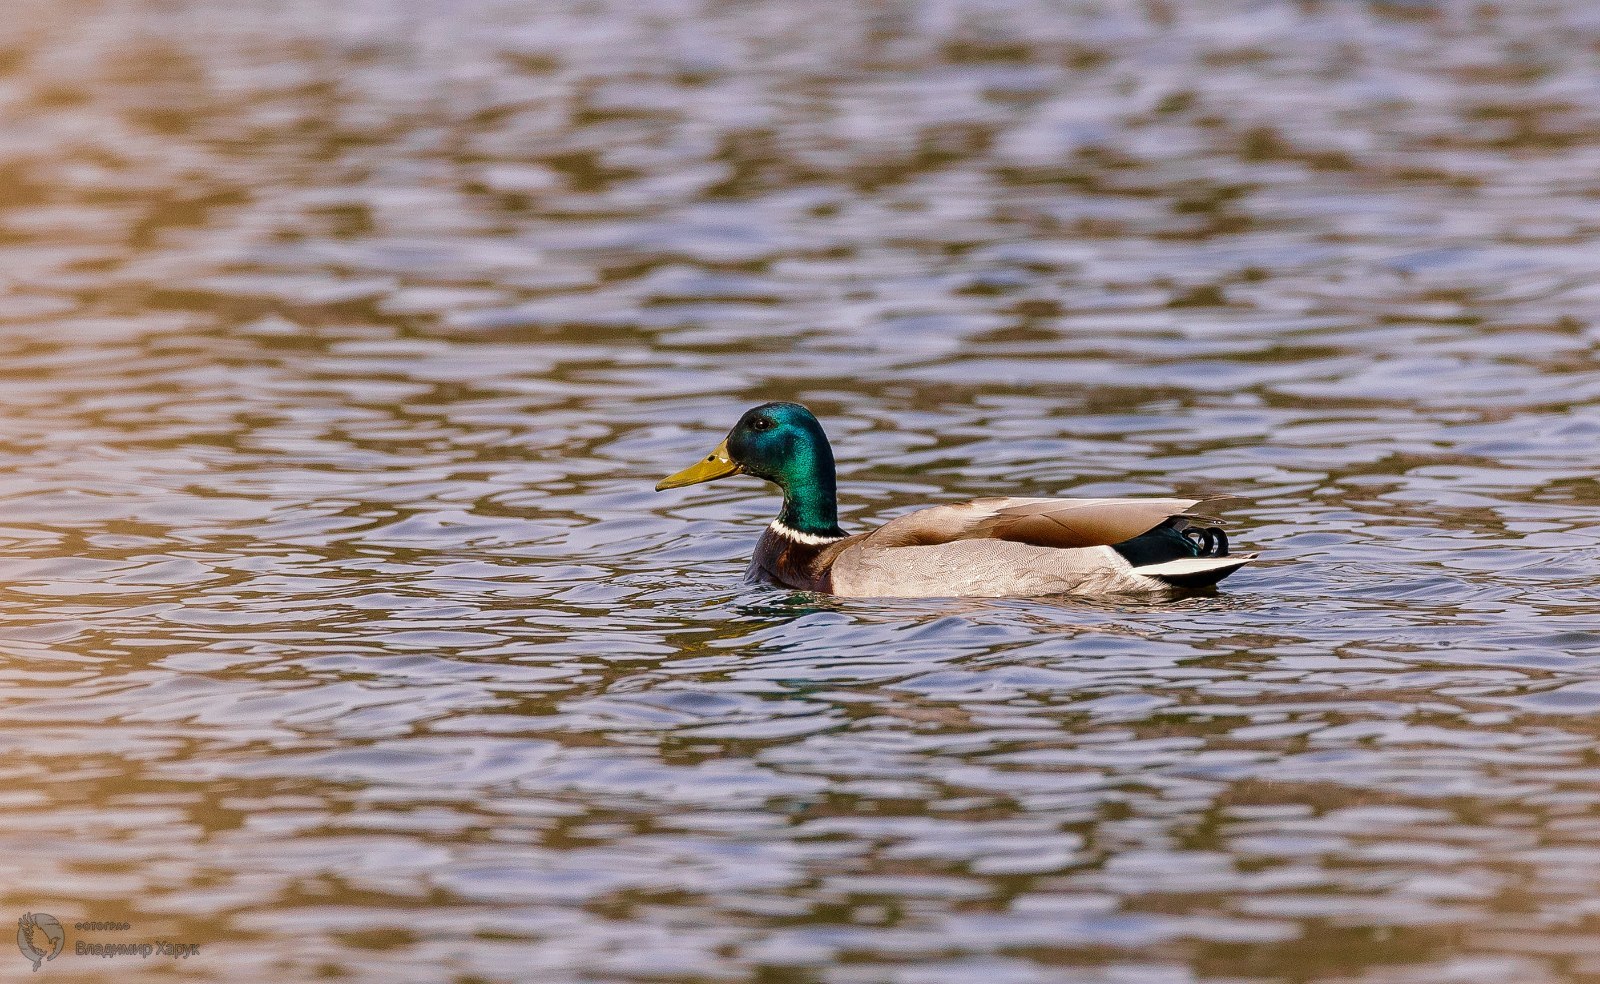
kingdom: Animalia
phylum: Chordata
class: Aves
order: Anseriformes
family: Anatidae
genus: Anas
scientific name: Anas platyrhynchos
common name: Mallard
